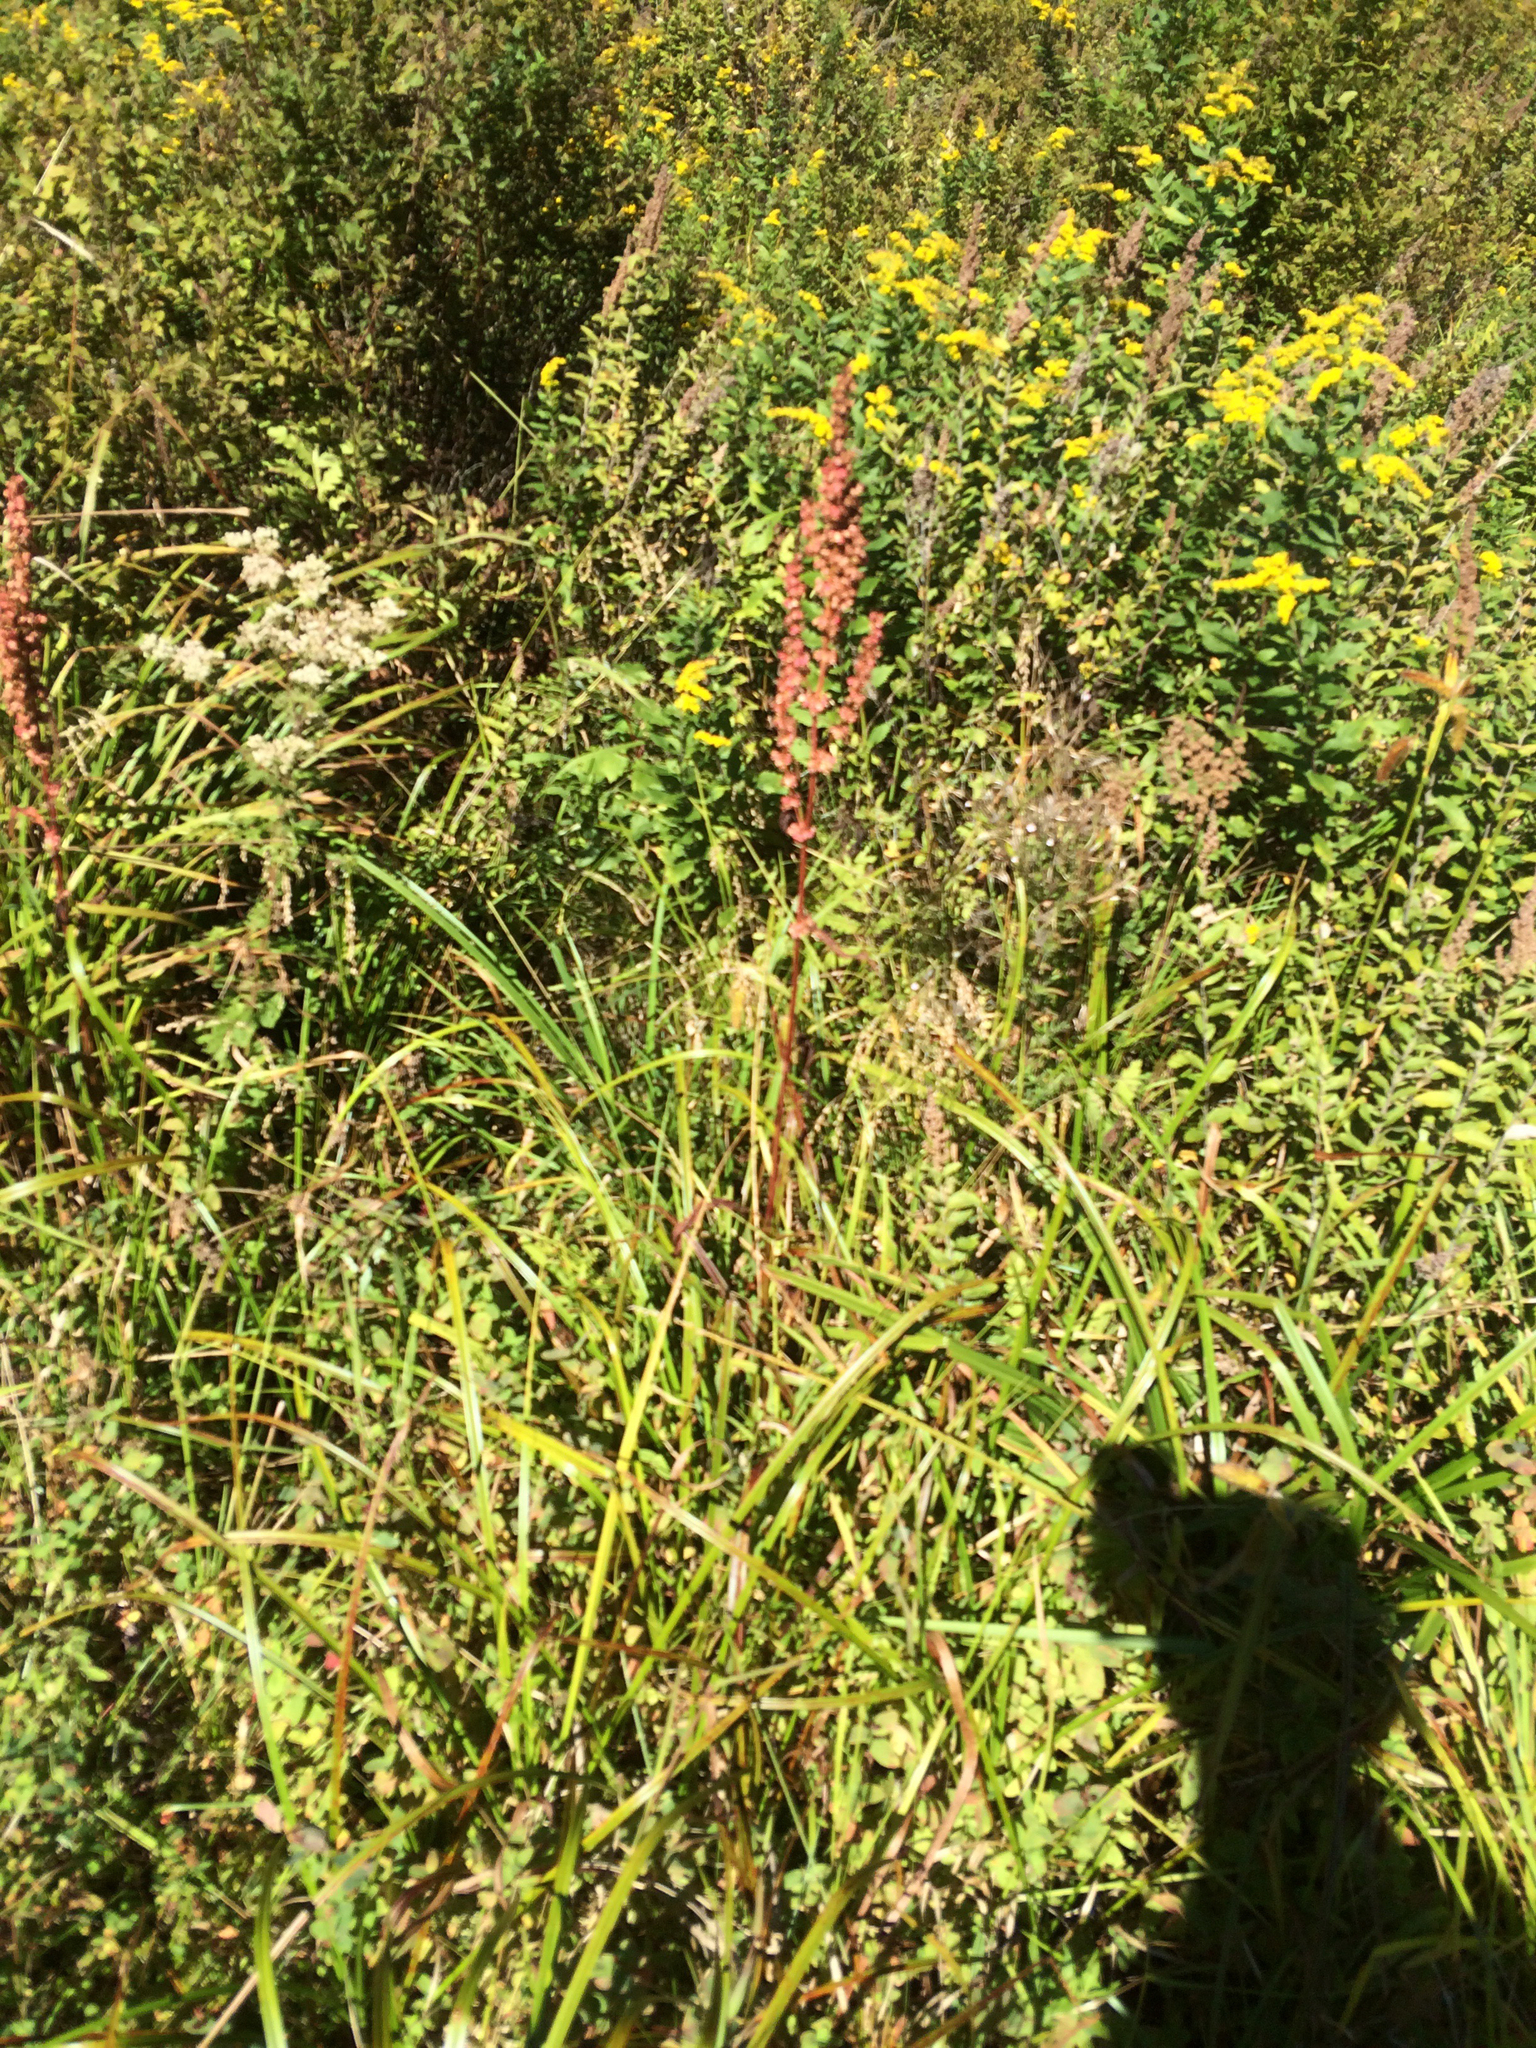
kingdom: Plantae
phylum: Tracheophyta
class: Magnoliopsida
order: Caryophyllales
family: Polygonaceae
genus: Rumex
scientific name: Rumex
